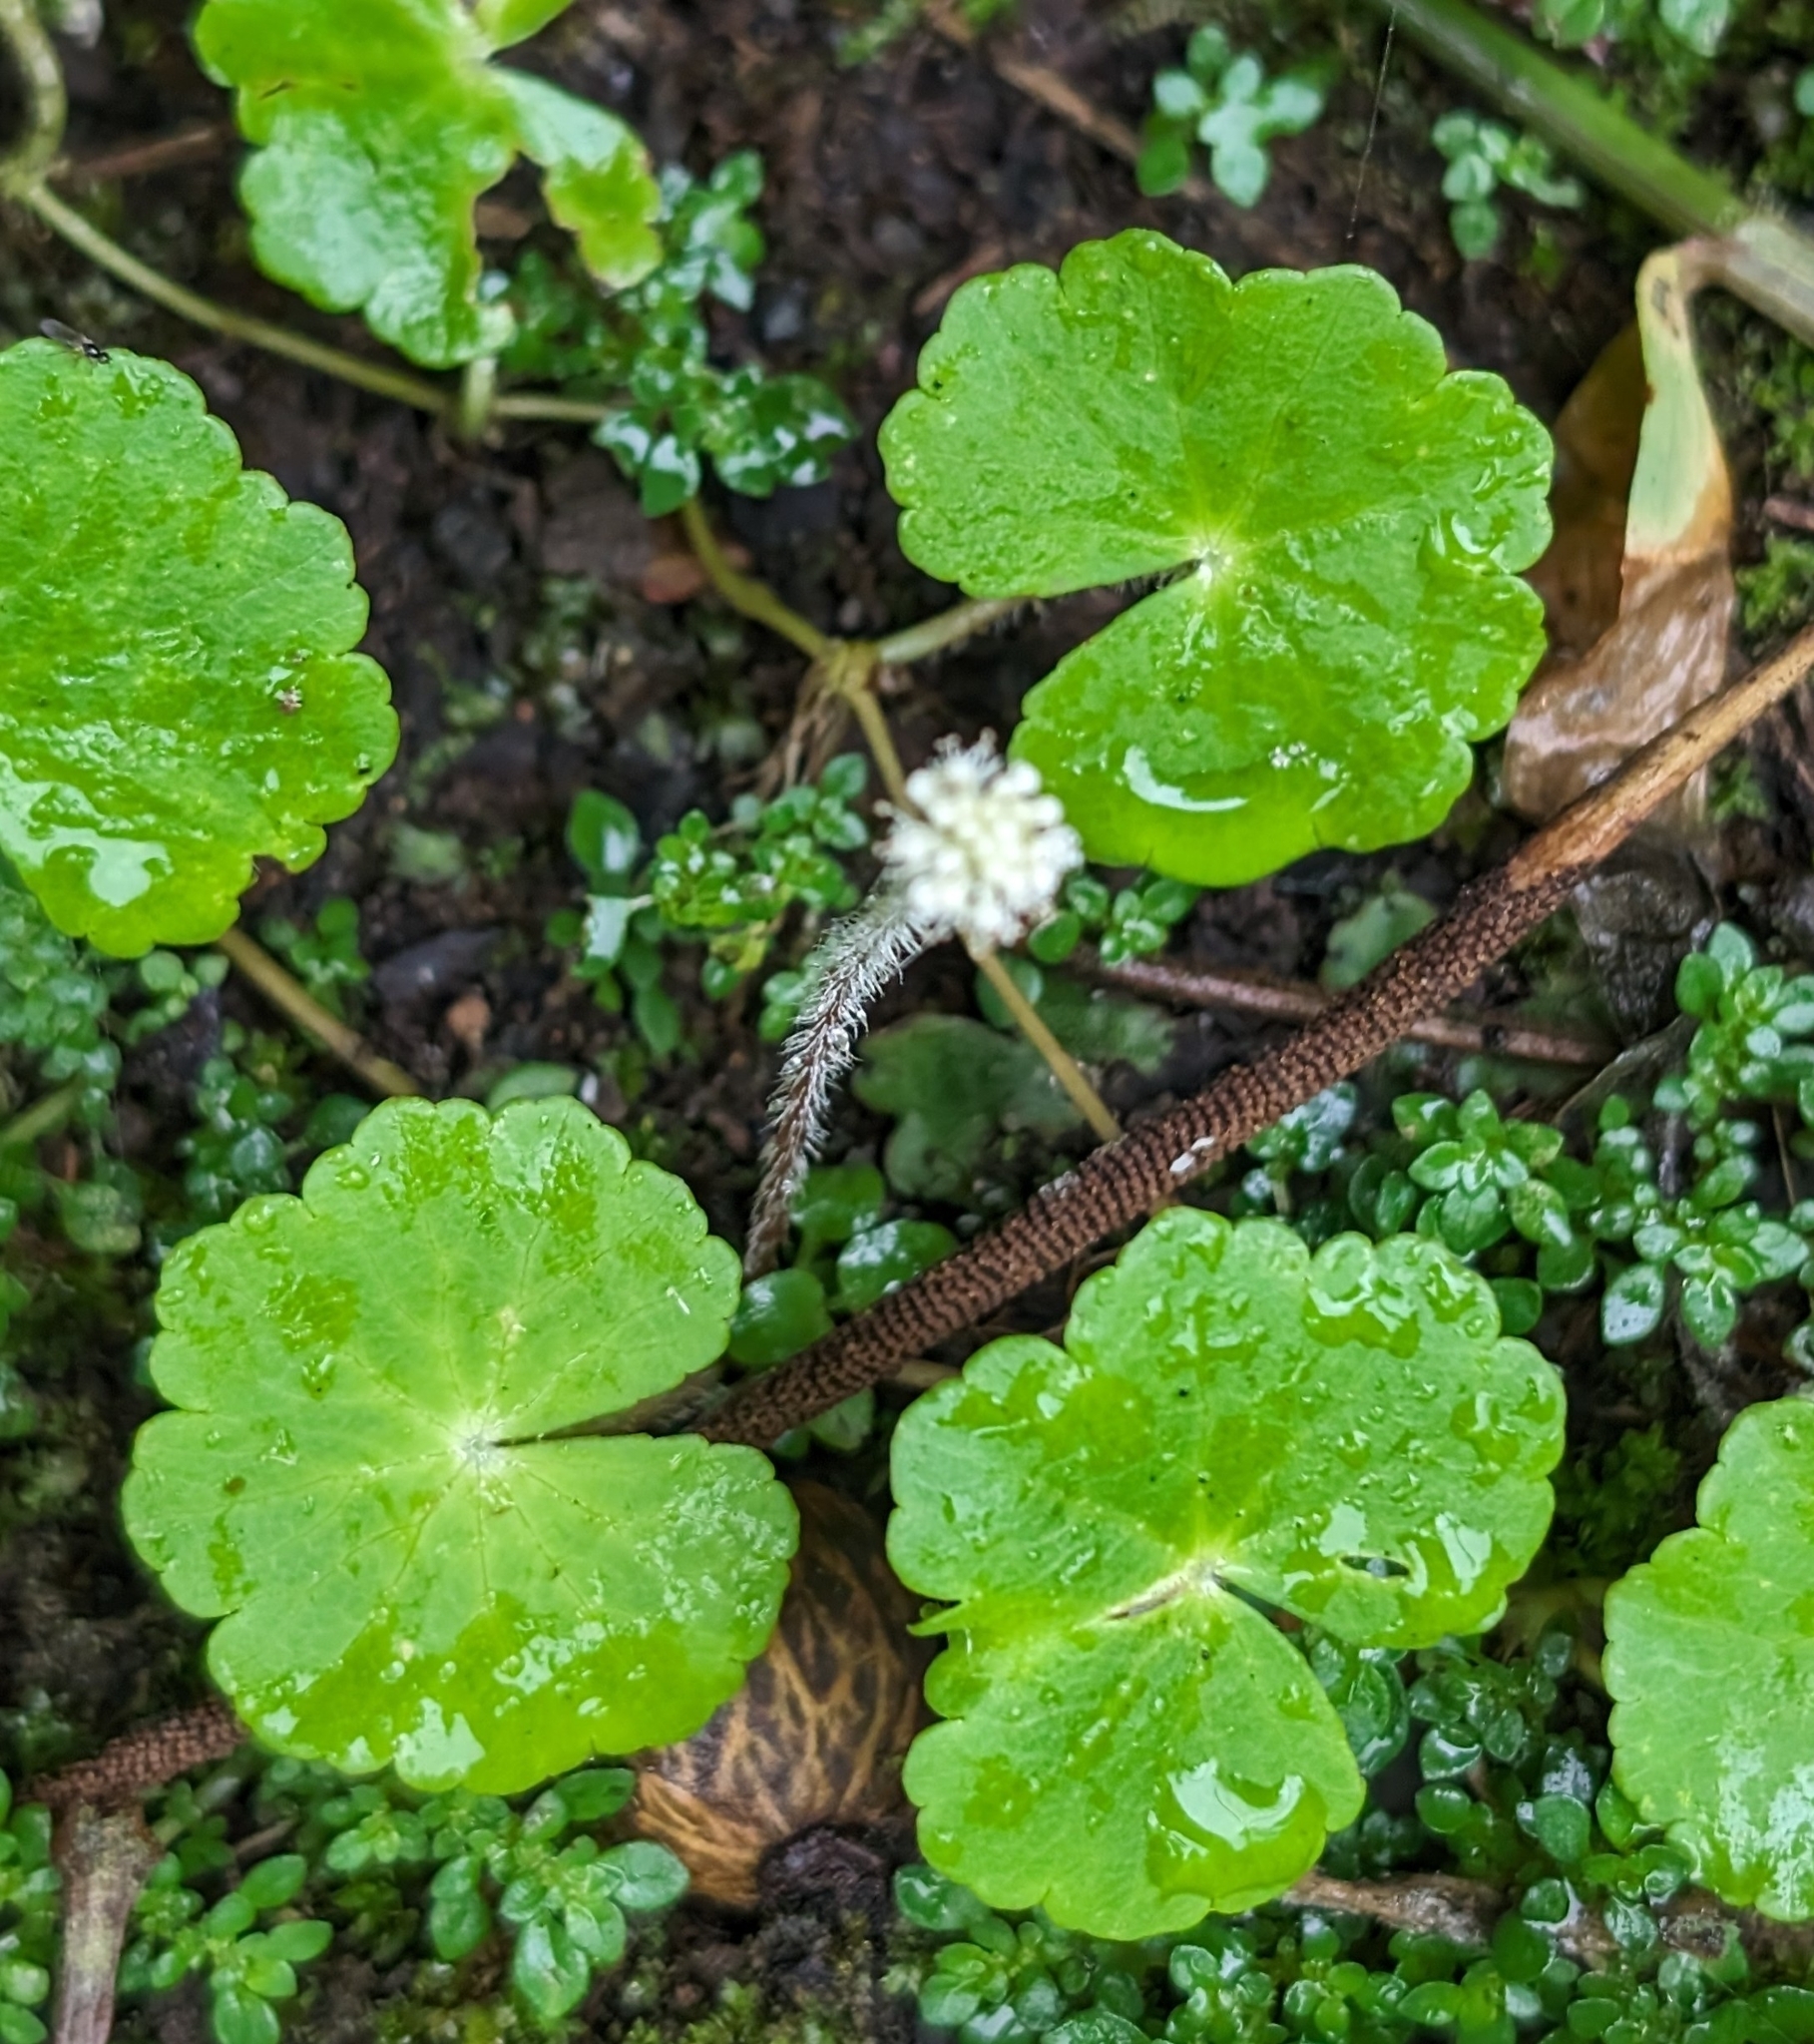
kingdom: Plantae
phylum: Tracheophyta
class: Magnoliopsida
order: Apiales
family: Araliaceae
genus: Hydrocotyle
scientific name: Hydrocotyle leucocephala
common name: Brazilian pennywort
